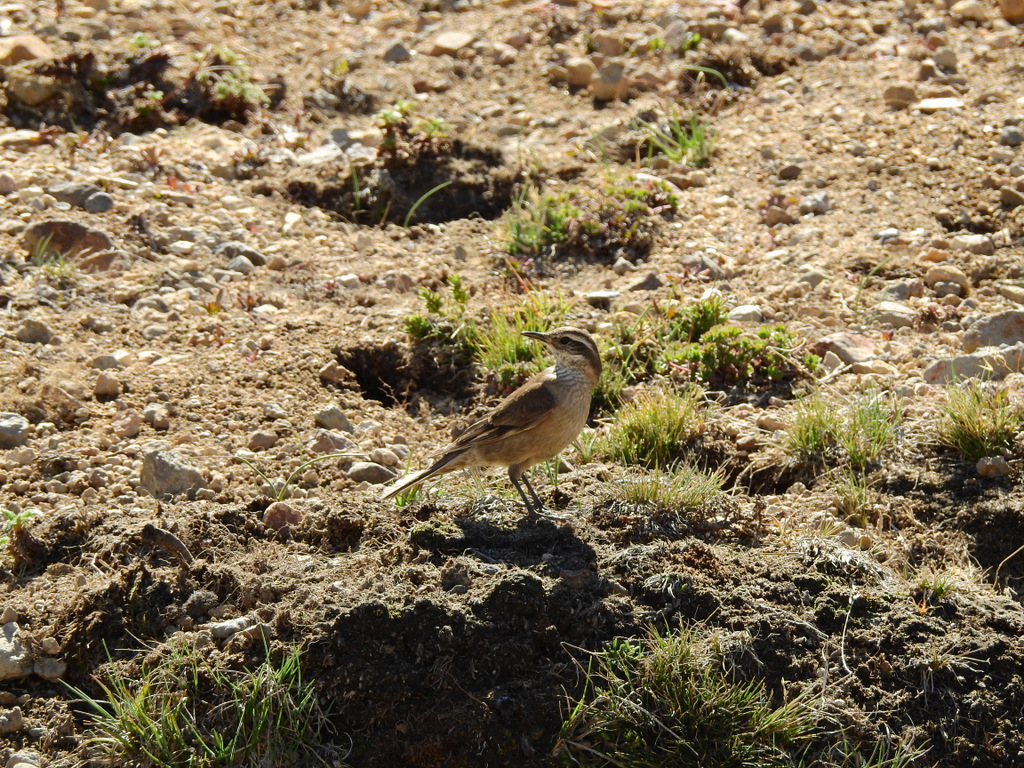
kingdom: Animalia
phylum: Chordata
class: Aves
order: Passeriformes
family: Furnariidae
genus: Cinclodes
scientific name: Cinclodes fuscus
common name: Buff-winged cinclodes
